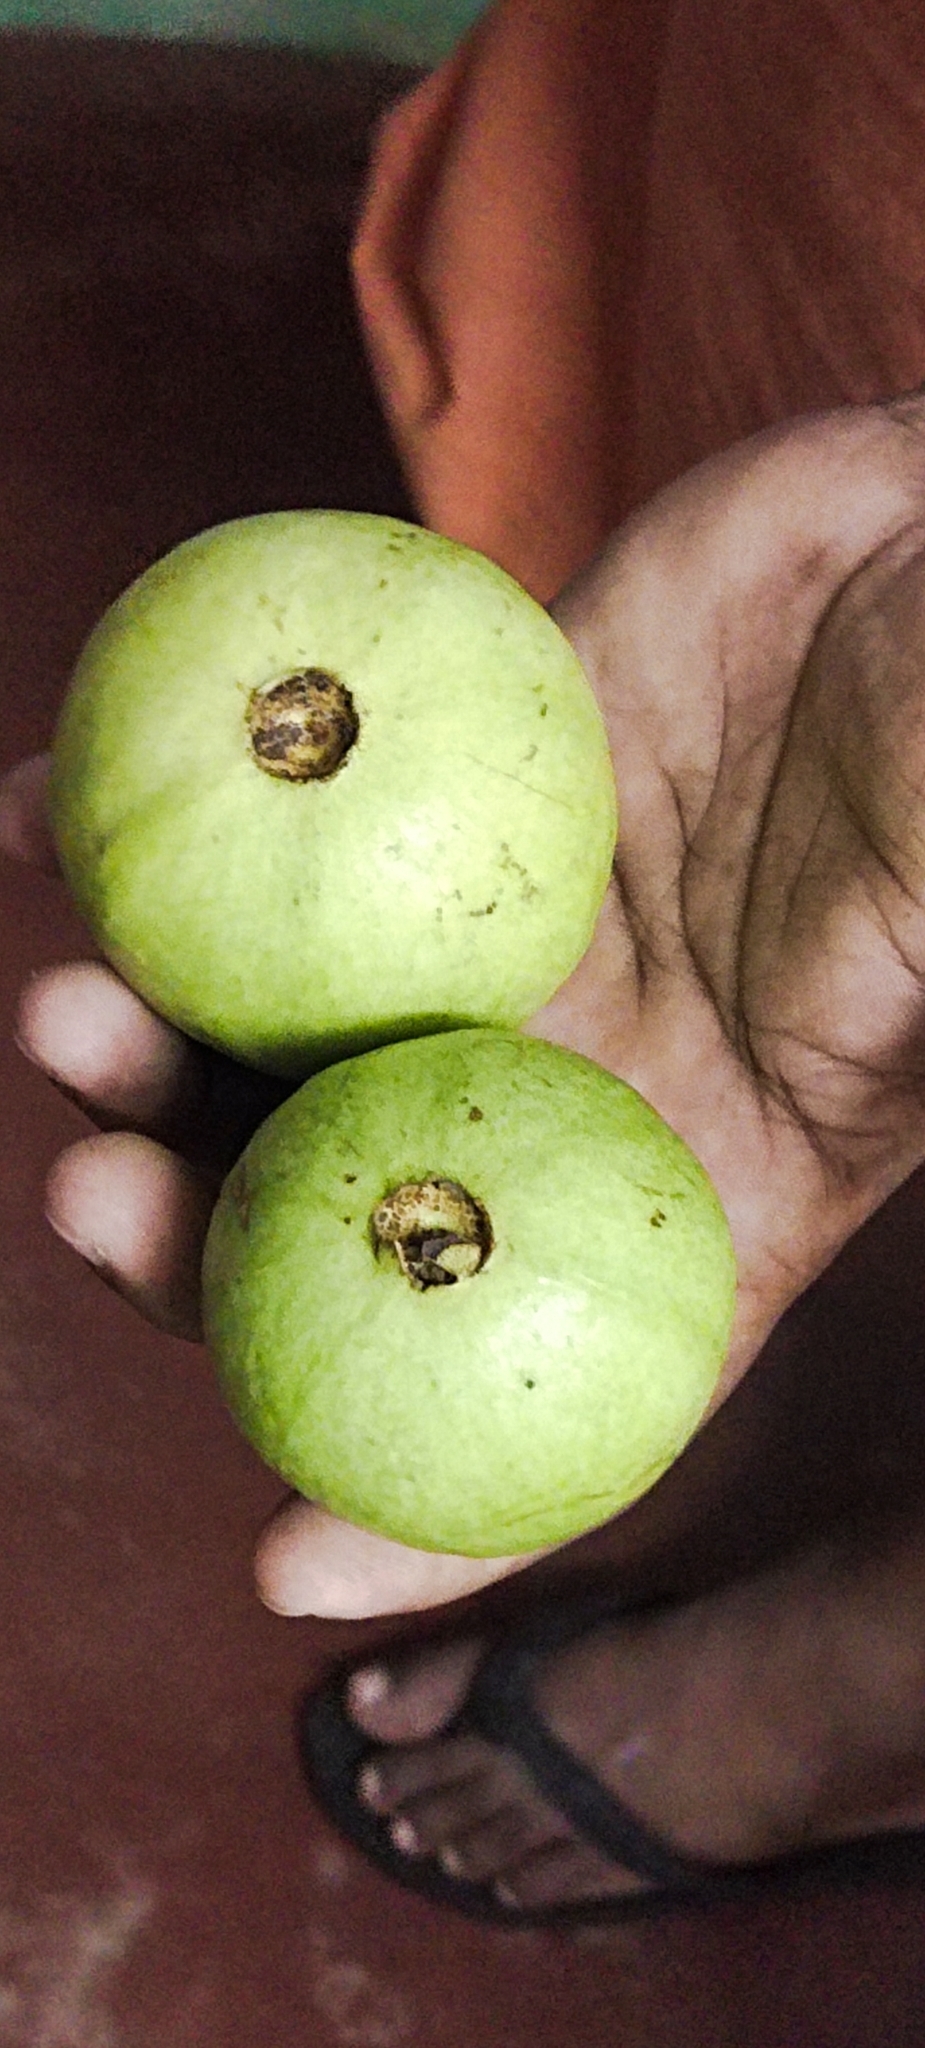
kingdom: Plantae
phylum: Tracheophyta
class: Magnoliopsida
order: Myrtales
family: Myrtaceae
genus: Psidium
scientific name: Psidium guajava
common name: Guava
